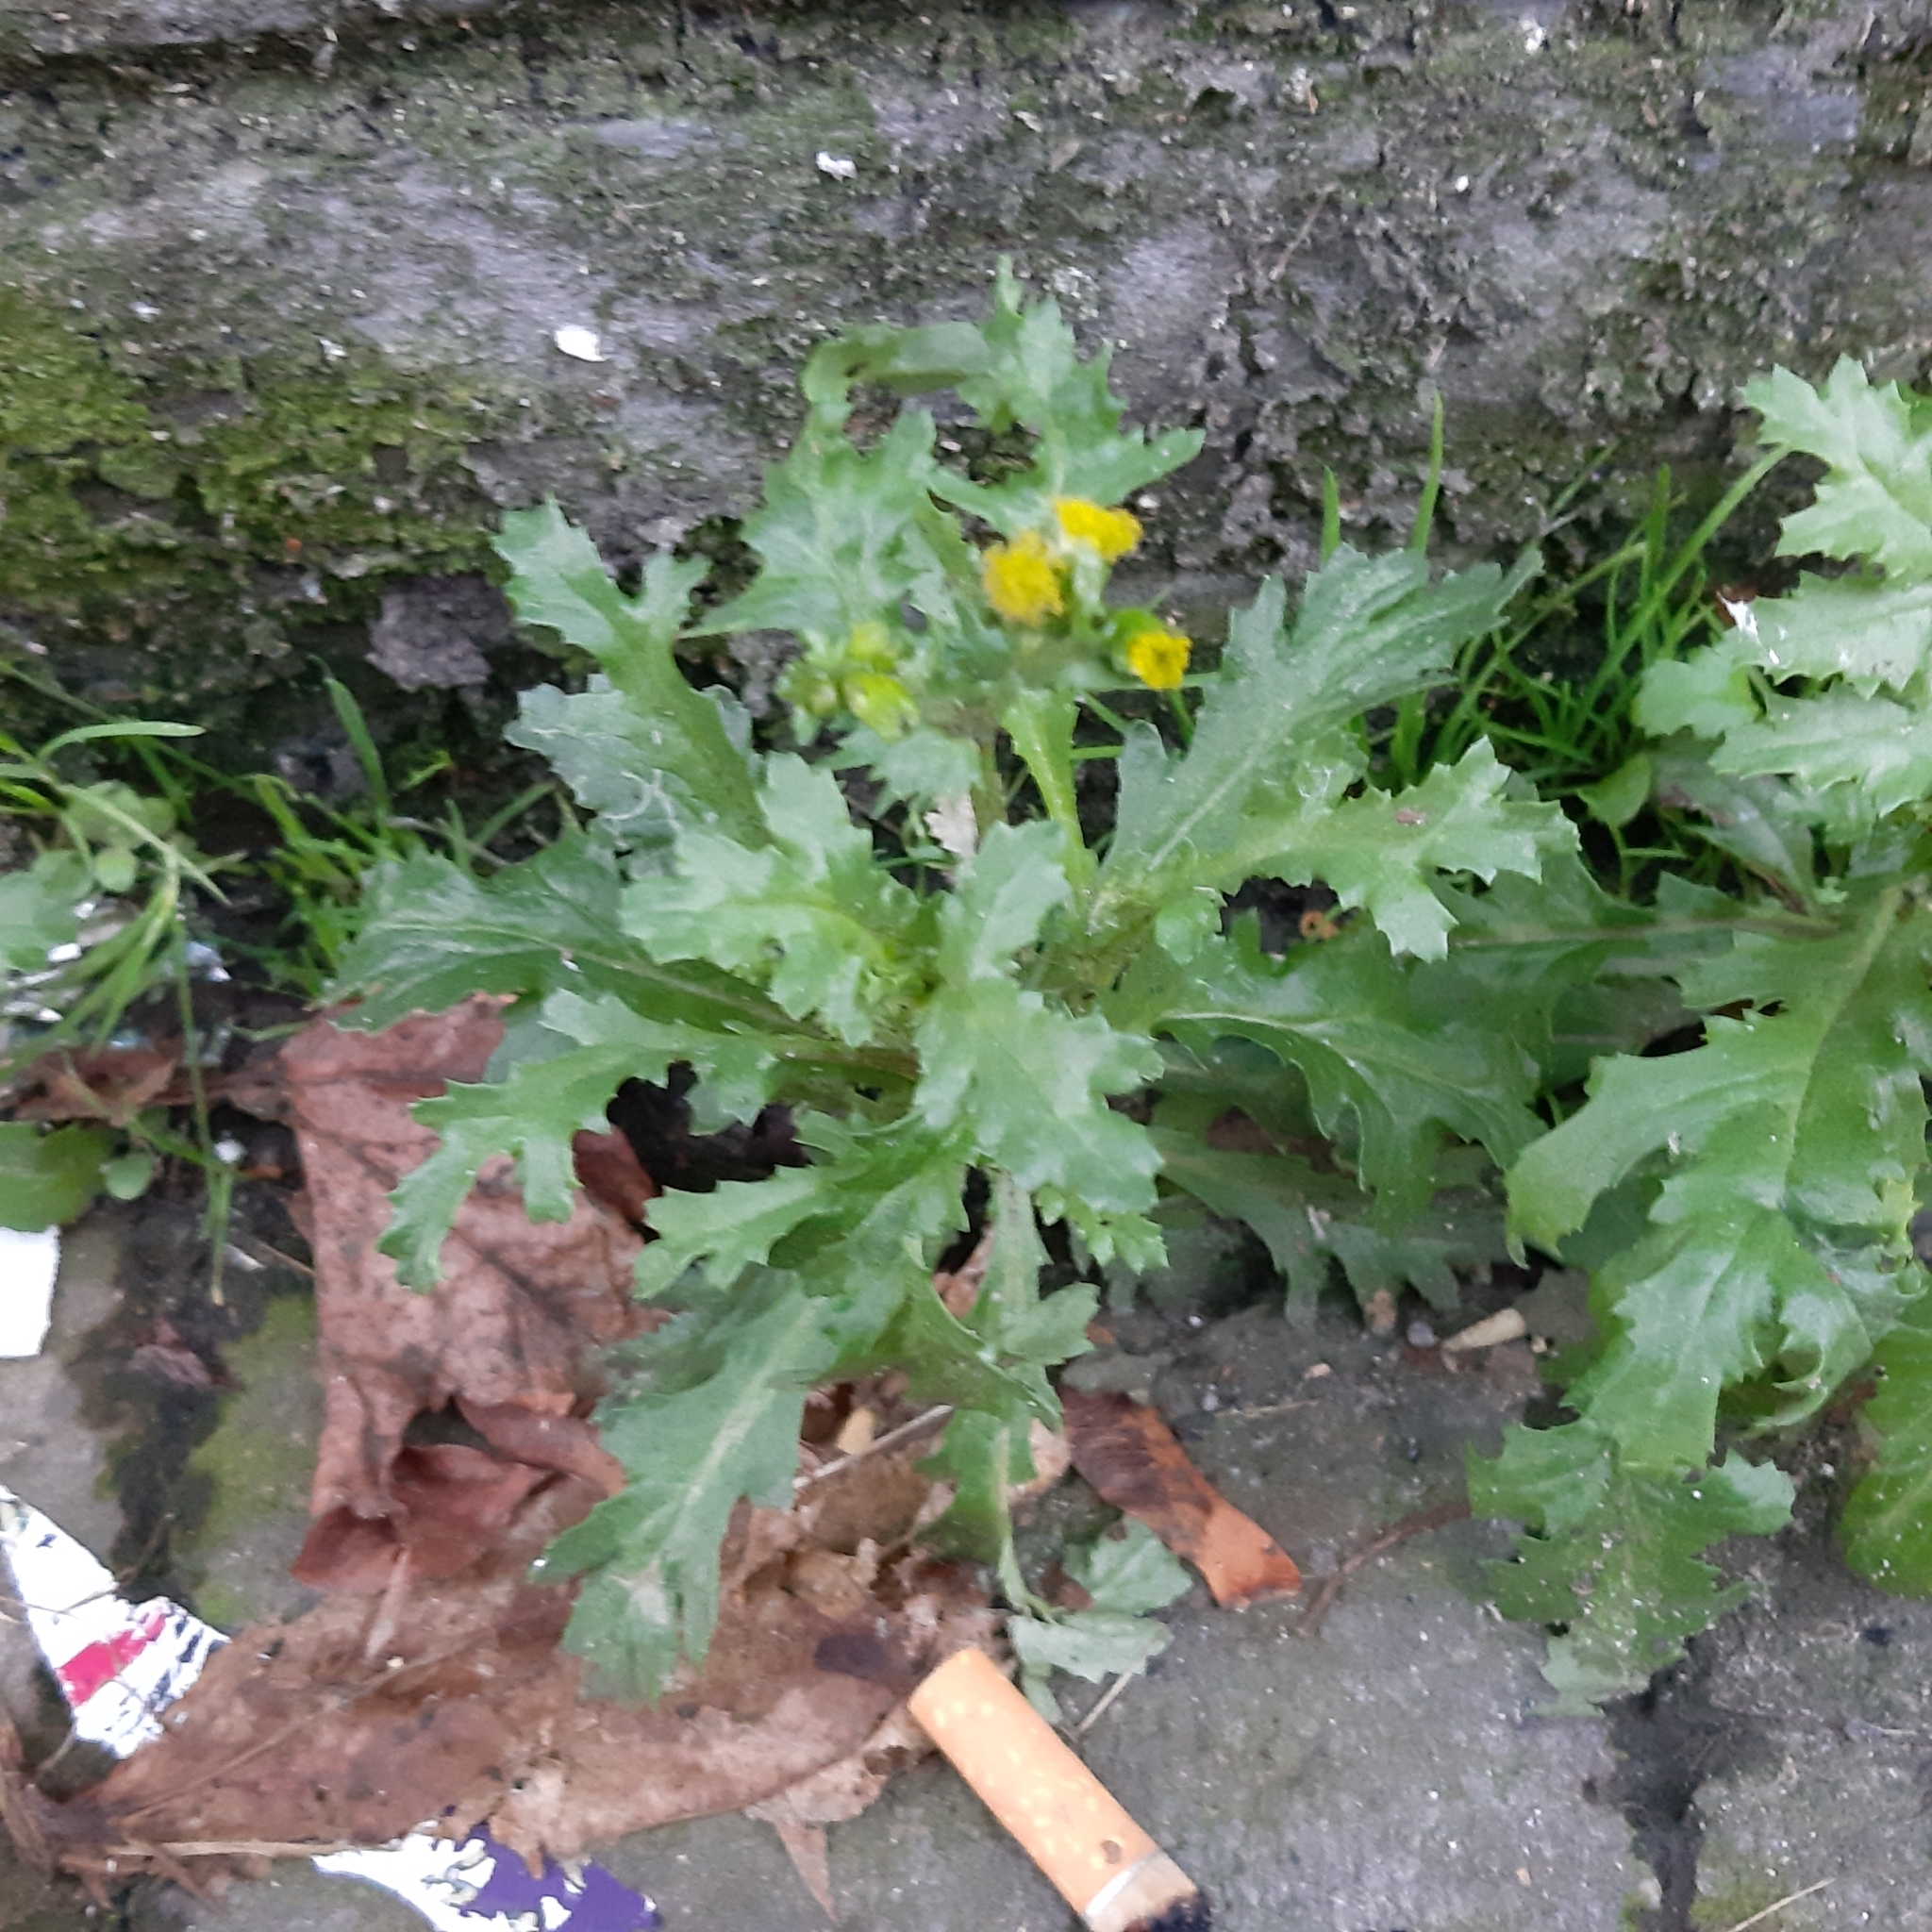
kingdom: Plantae
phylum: Tracheophyta
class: Magnoliopsida
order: Asterales
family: Asteraceae
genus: Senecio
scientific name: Senecio vulgaris
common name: Old-man-in-the-spring
